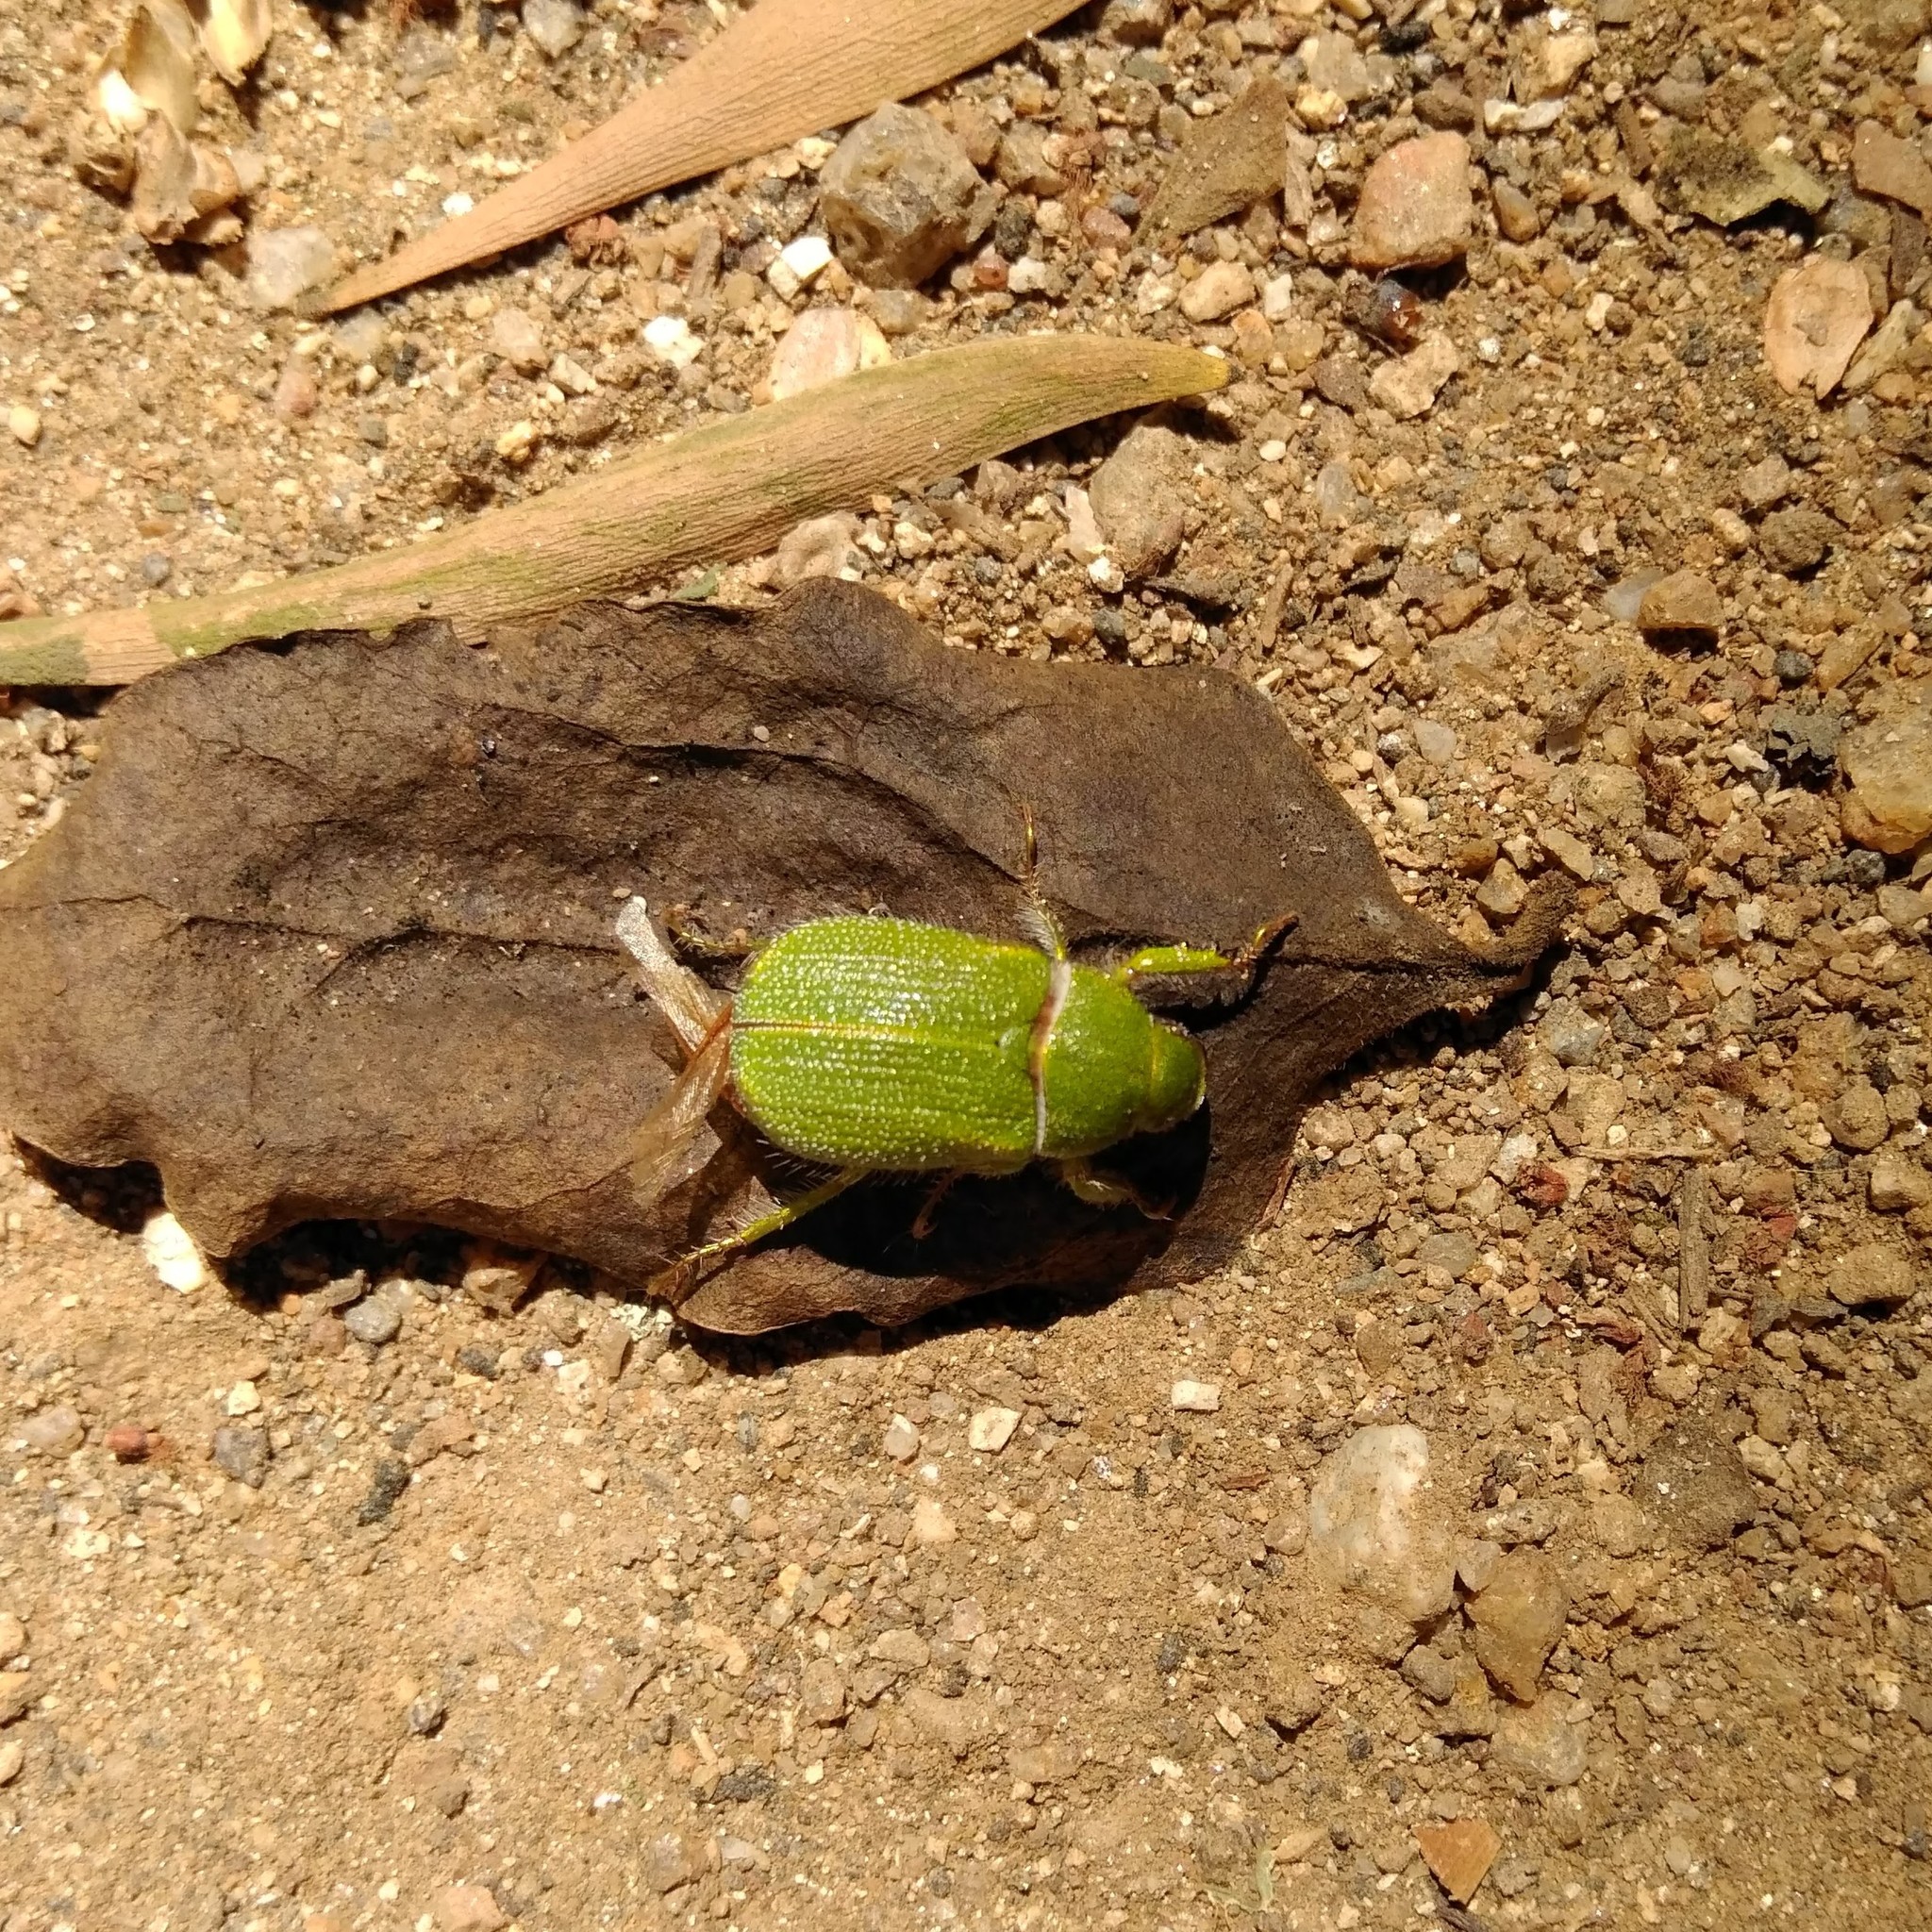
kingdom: Animalia
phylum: Arthropoda
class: Insecta
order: Coleoptera
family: Scarabaeidae
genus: Hylamorpha
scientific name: Hylamorpha elegans
